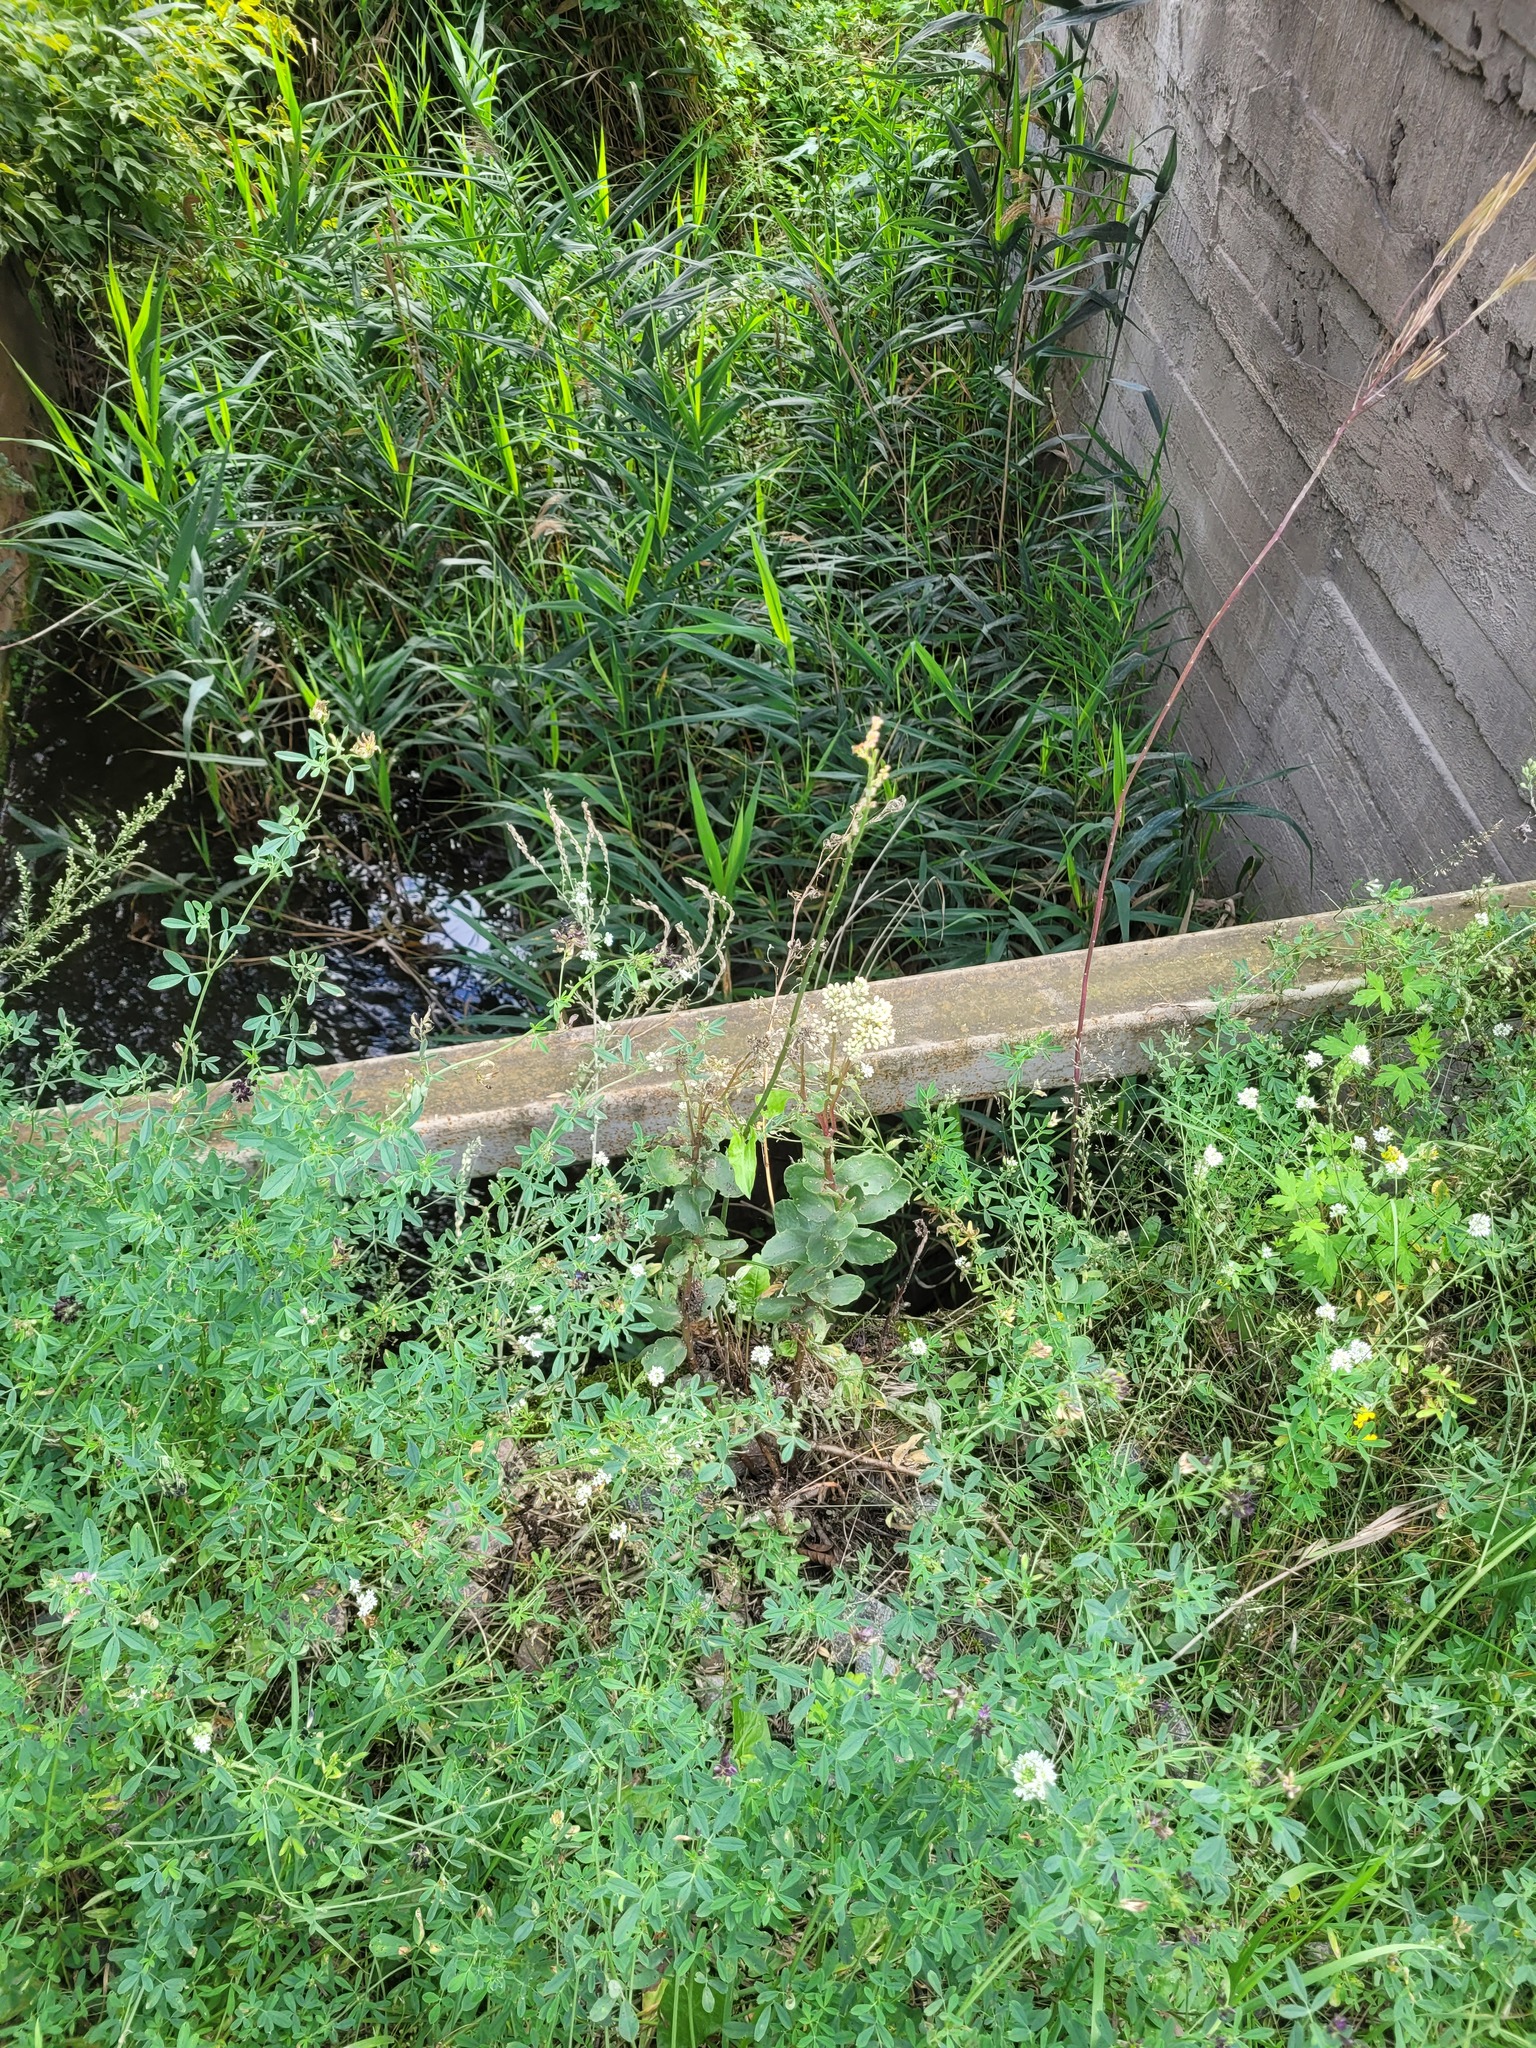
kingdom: Plantae
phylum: Tracheophyta
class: Magnoliopsida
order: Saxifragales
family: Crassulaceae
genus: Hylotelephium
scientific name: Hylotelephium maximum
